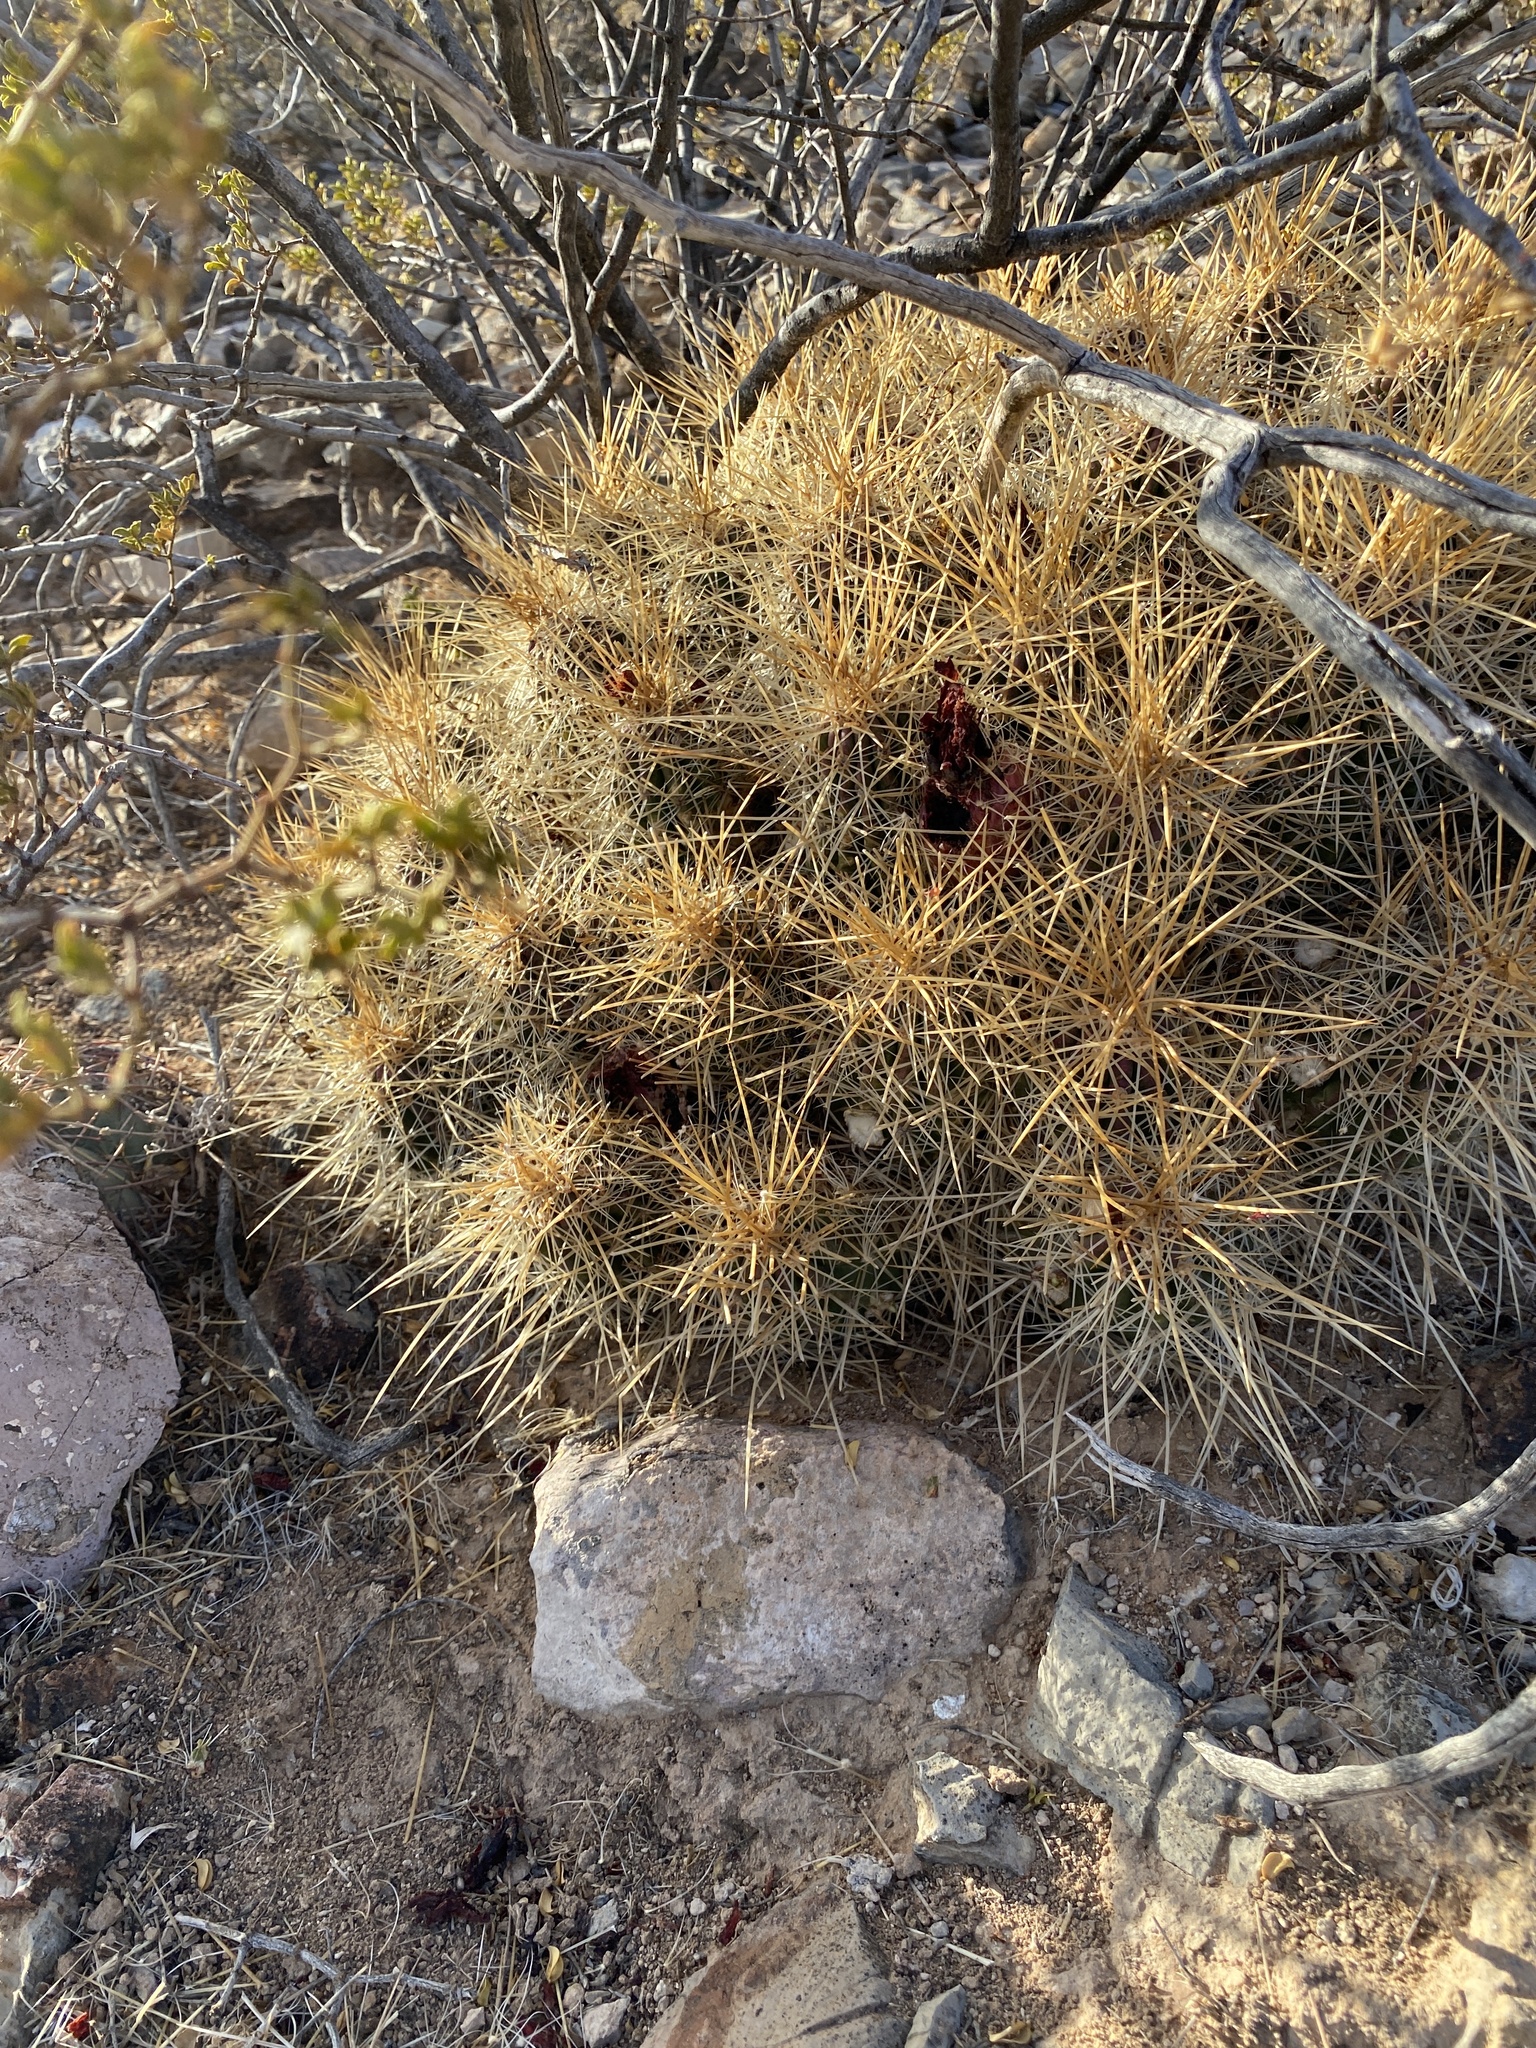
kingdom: Plantae
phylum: Tracheophyta
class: Magnoliopsida
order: Caryophyllales
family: Cactaceae
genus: Echinocereus
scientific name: Echinocereus stramineus
